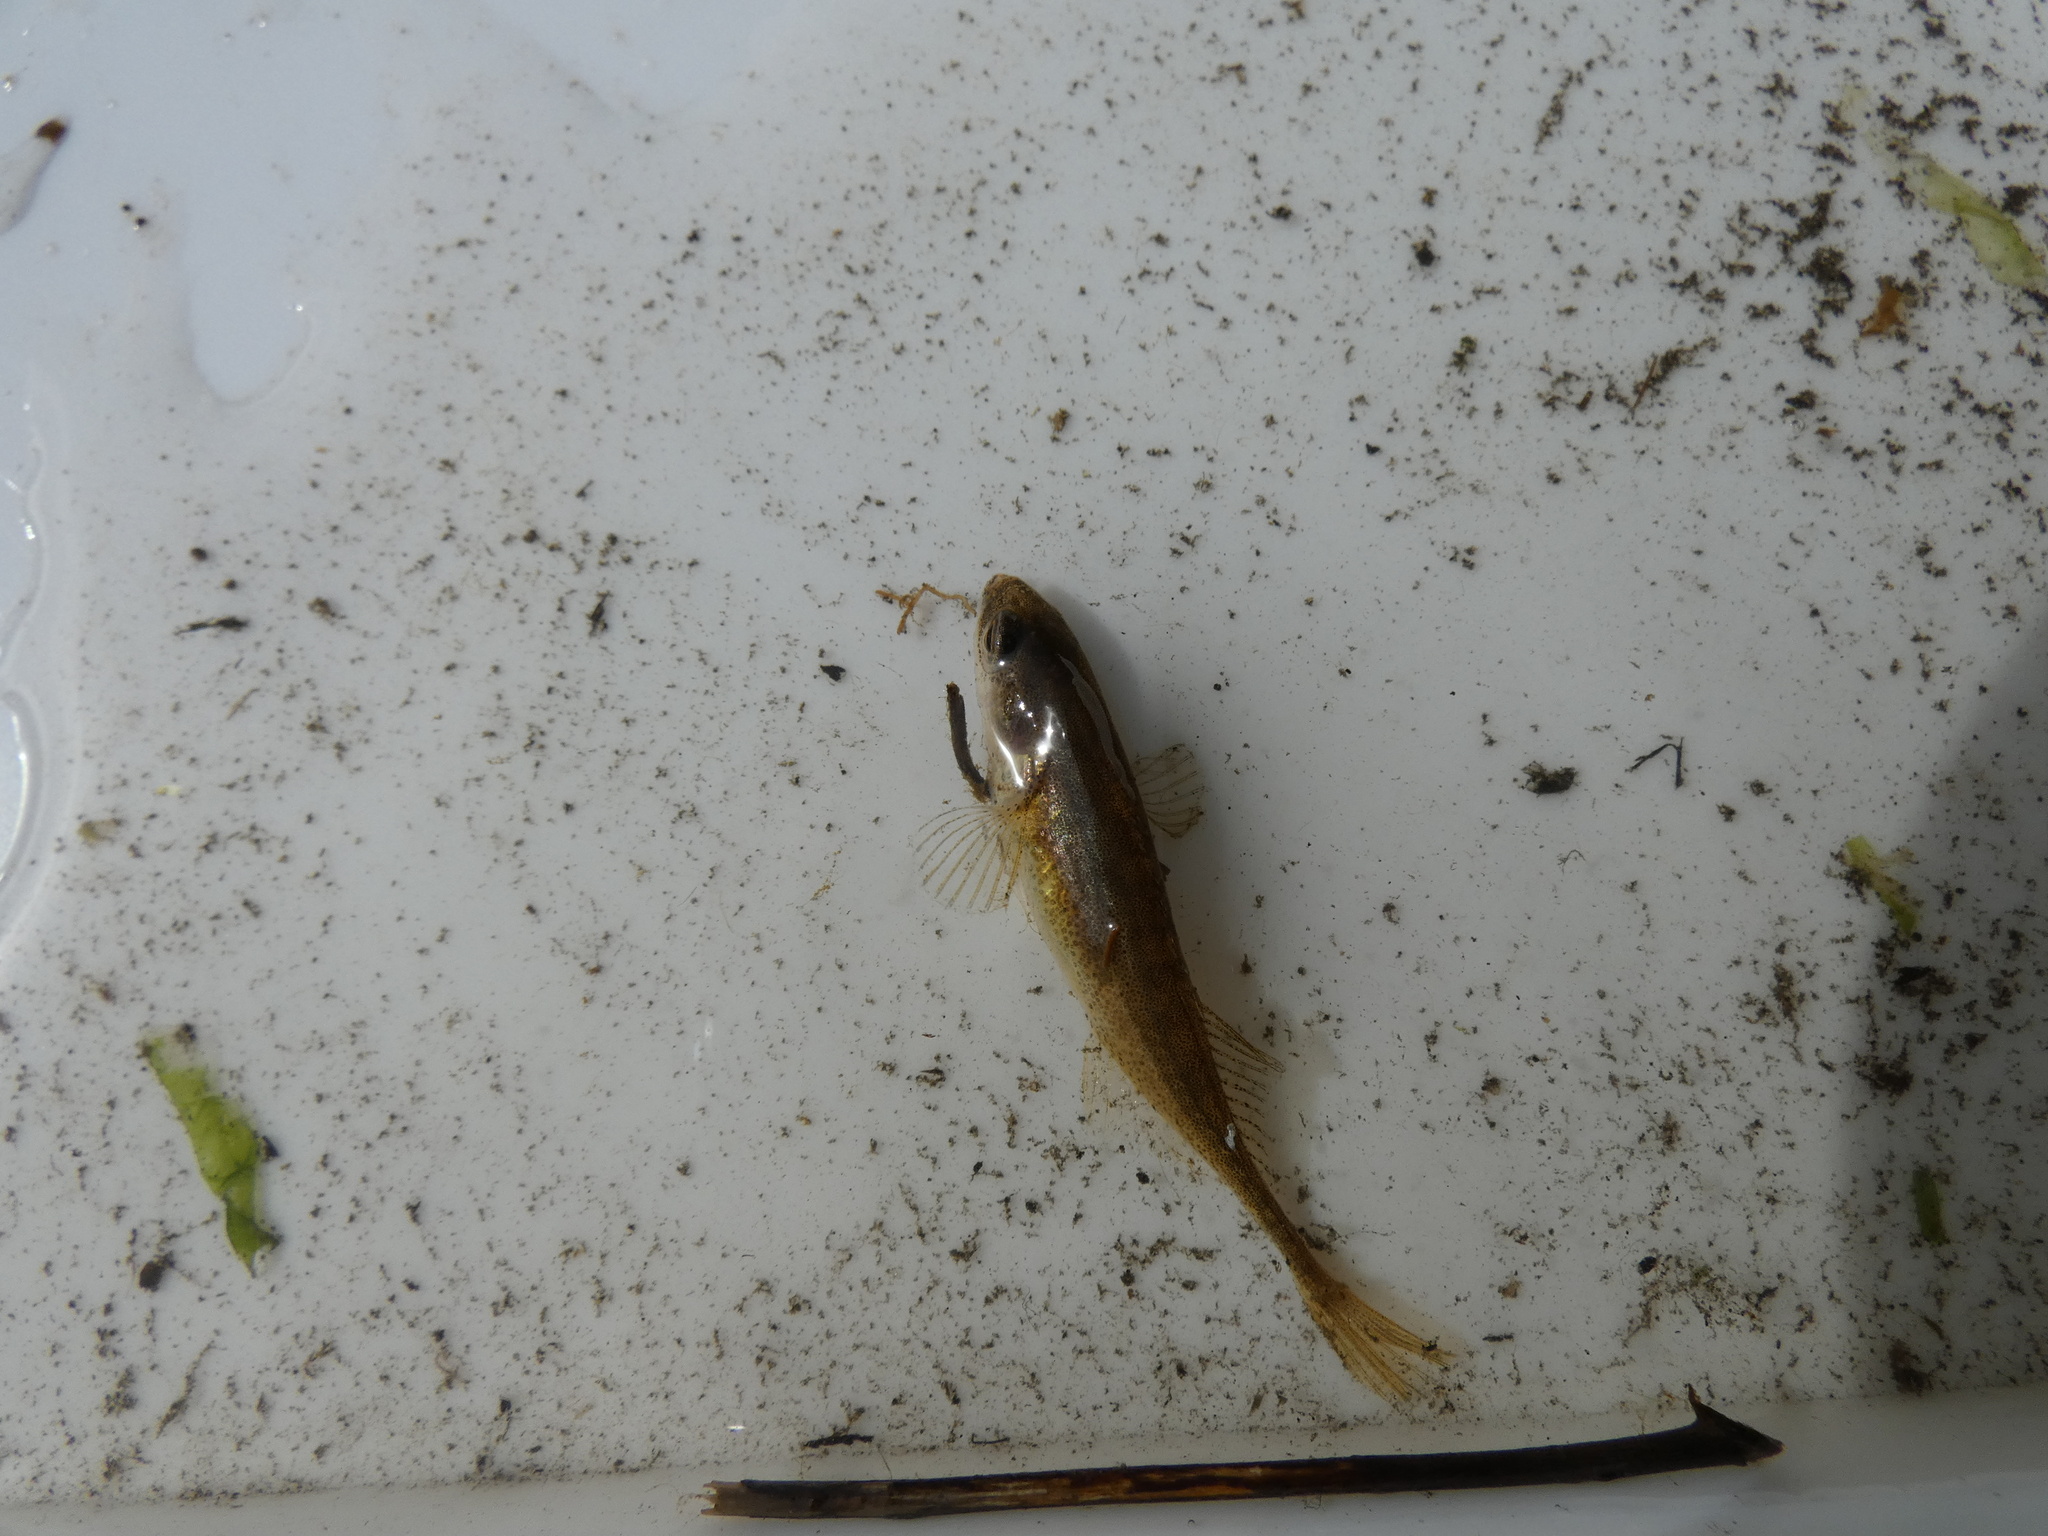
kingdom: Animalia
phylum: Chordata
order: Gasterosteiformes
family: Gasterosteidae
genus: Pungitius
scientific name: Pungitius pungitius
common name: Nine-spined stickleback
